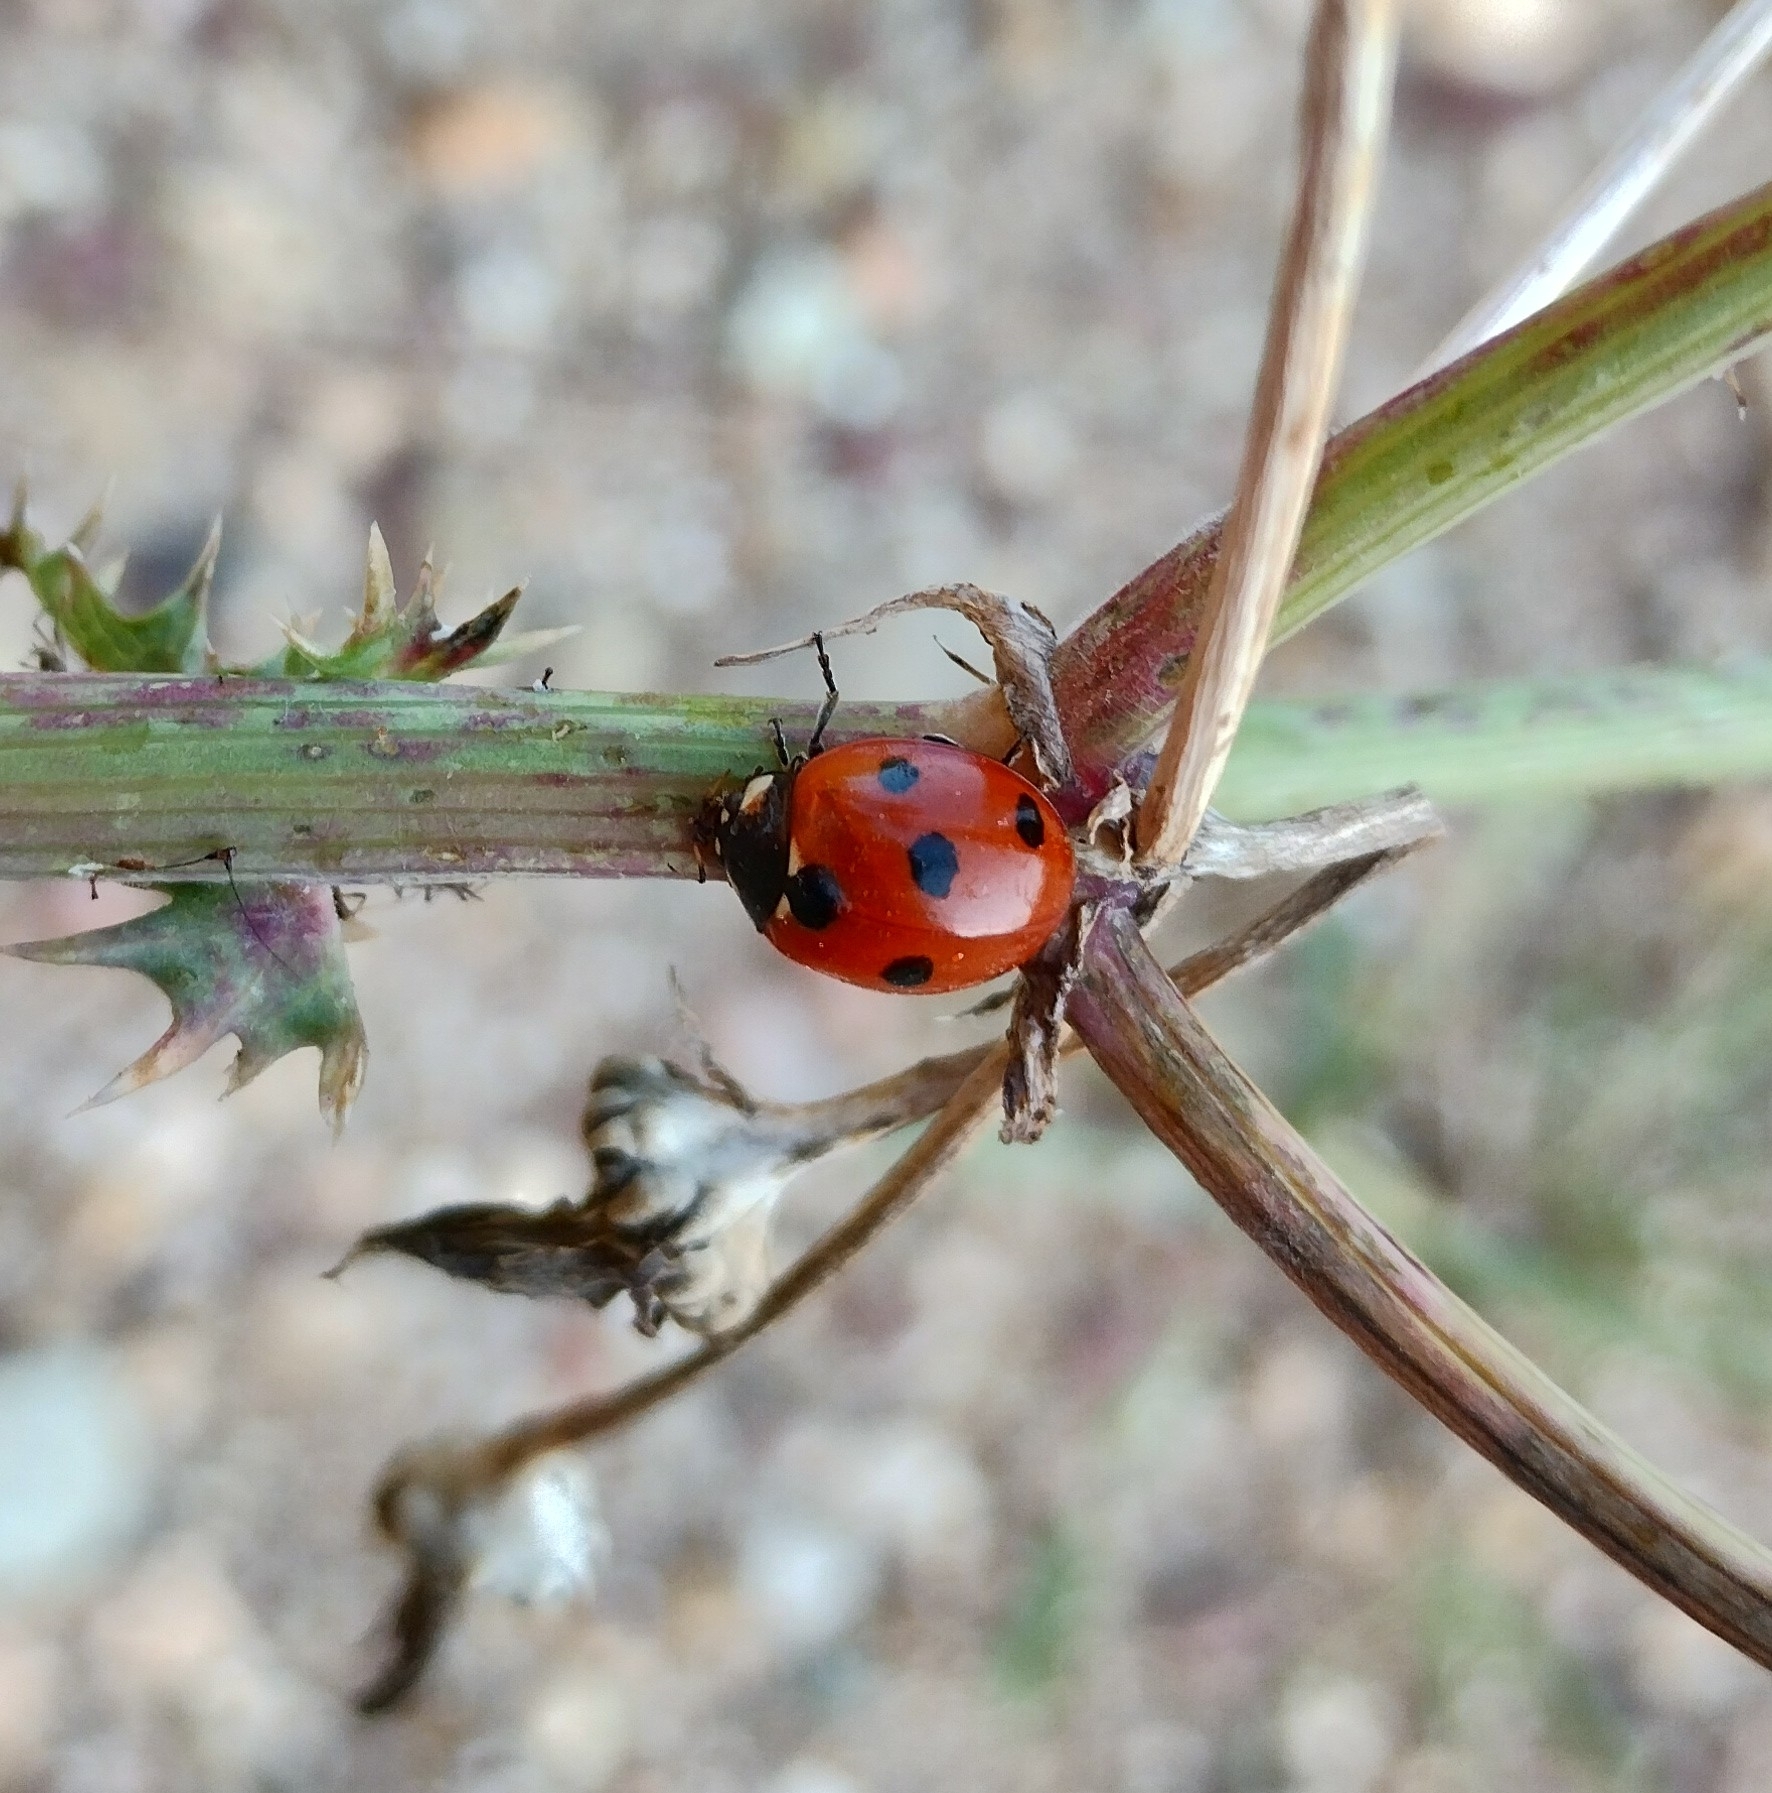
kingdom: Animalia
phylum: Arthropoda
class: Insecta
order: Coleoptera
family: Coccinellidae
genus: Coccinella
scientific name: Coccinella septempunctata
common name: Sevenspotted lady beetle
